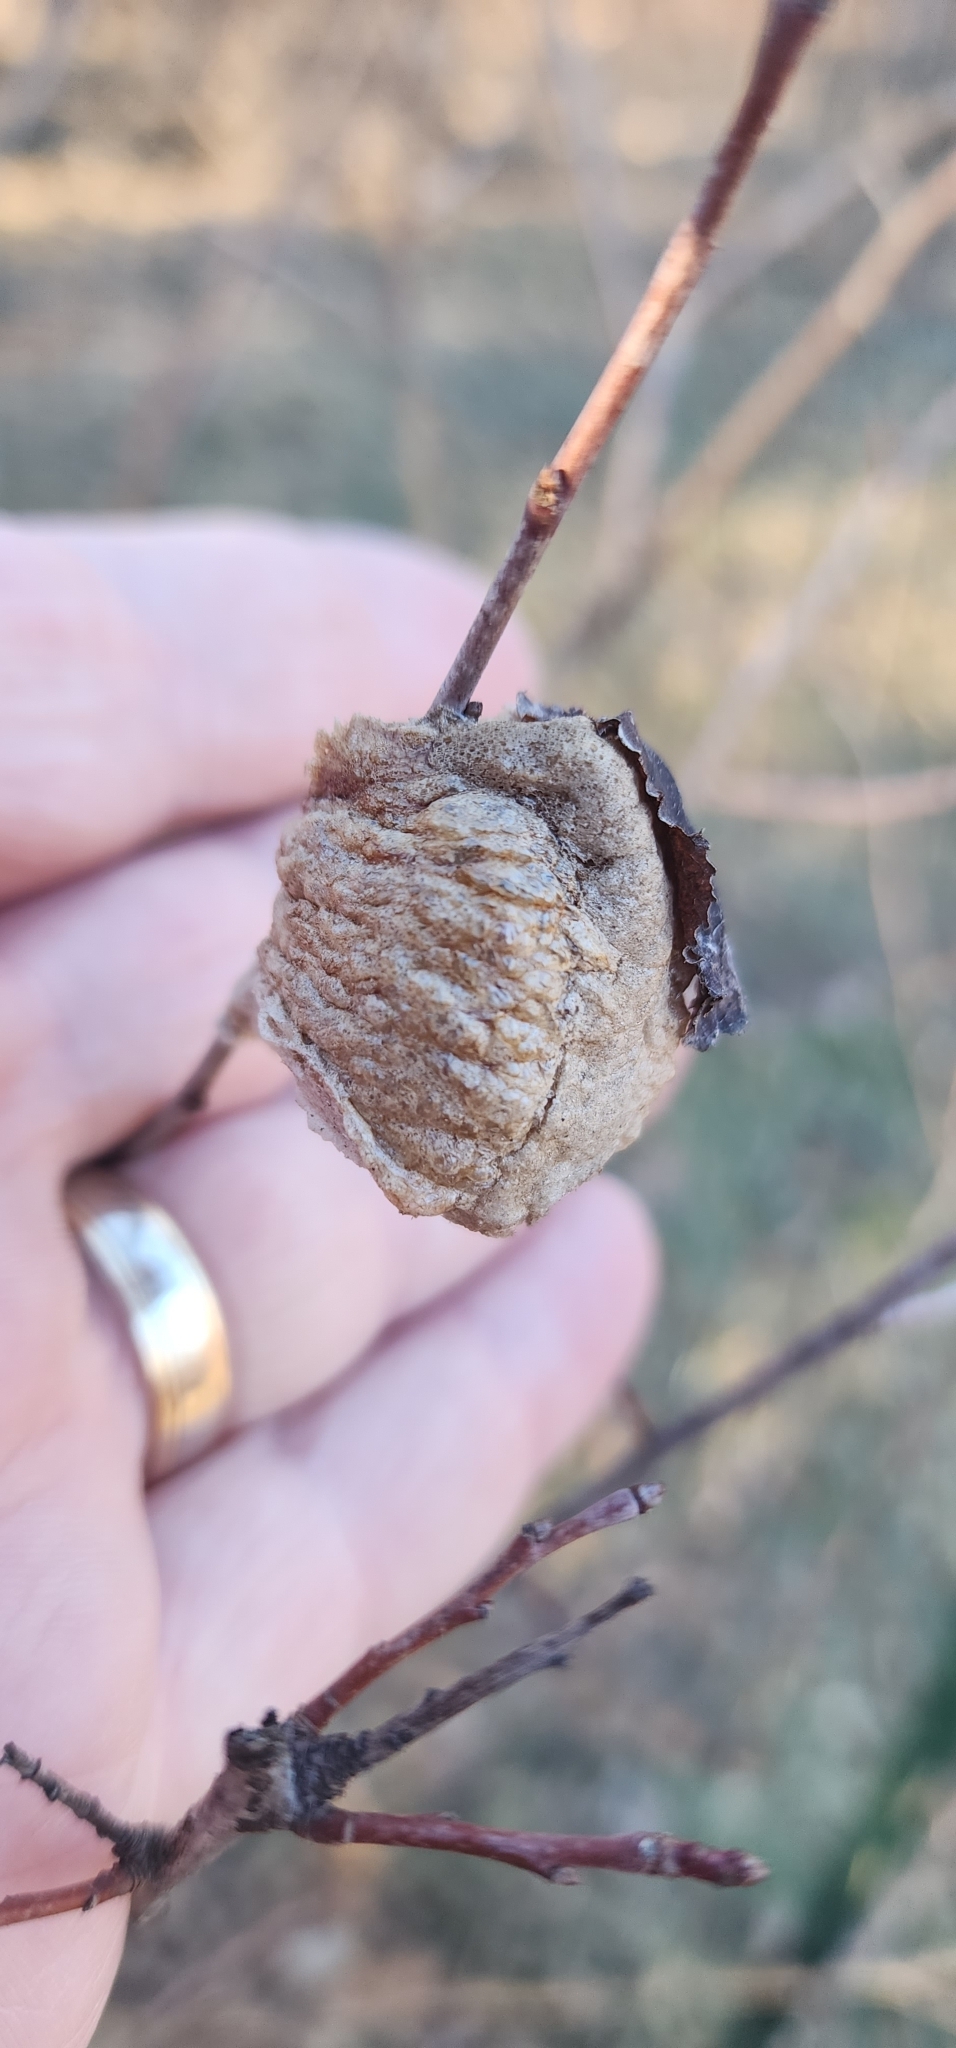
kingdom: Animalia
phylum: Arthropoda
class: Insecta
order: Mantodea
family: Mantidae
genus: Tenodera
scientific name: Tenodera sinensis
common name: Chinese mantis
